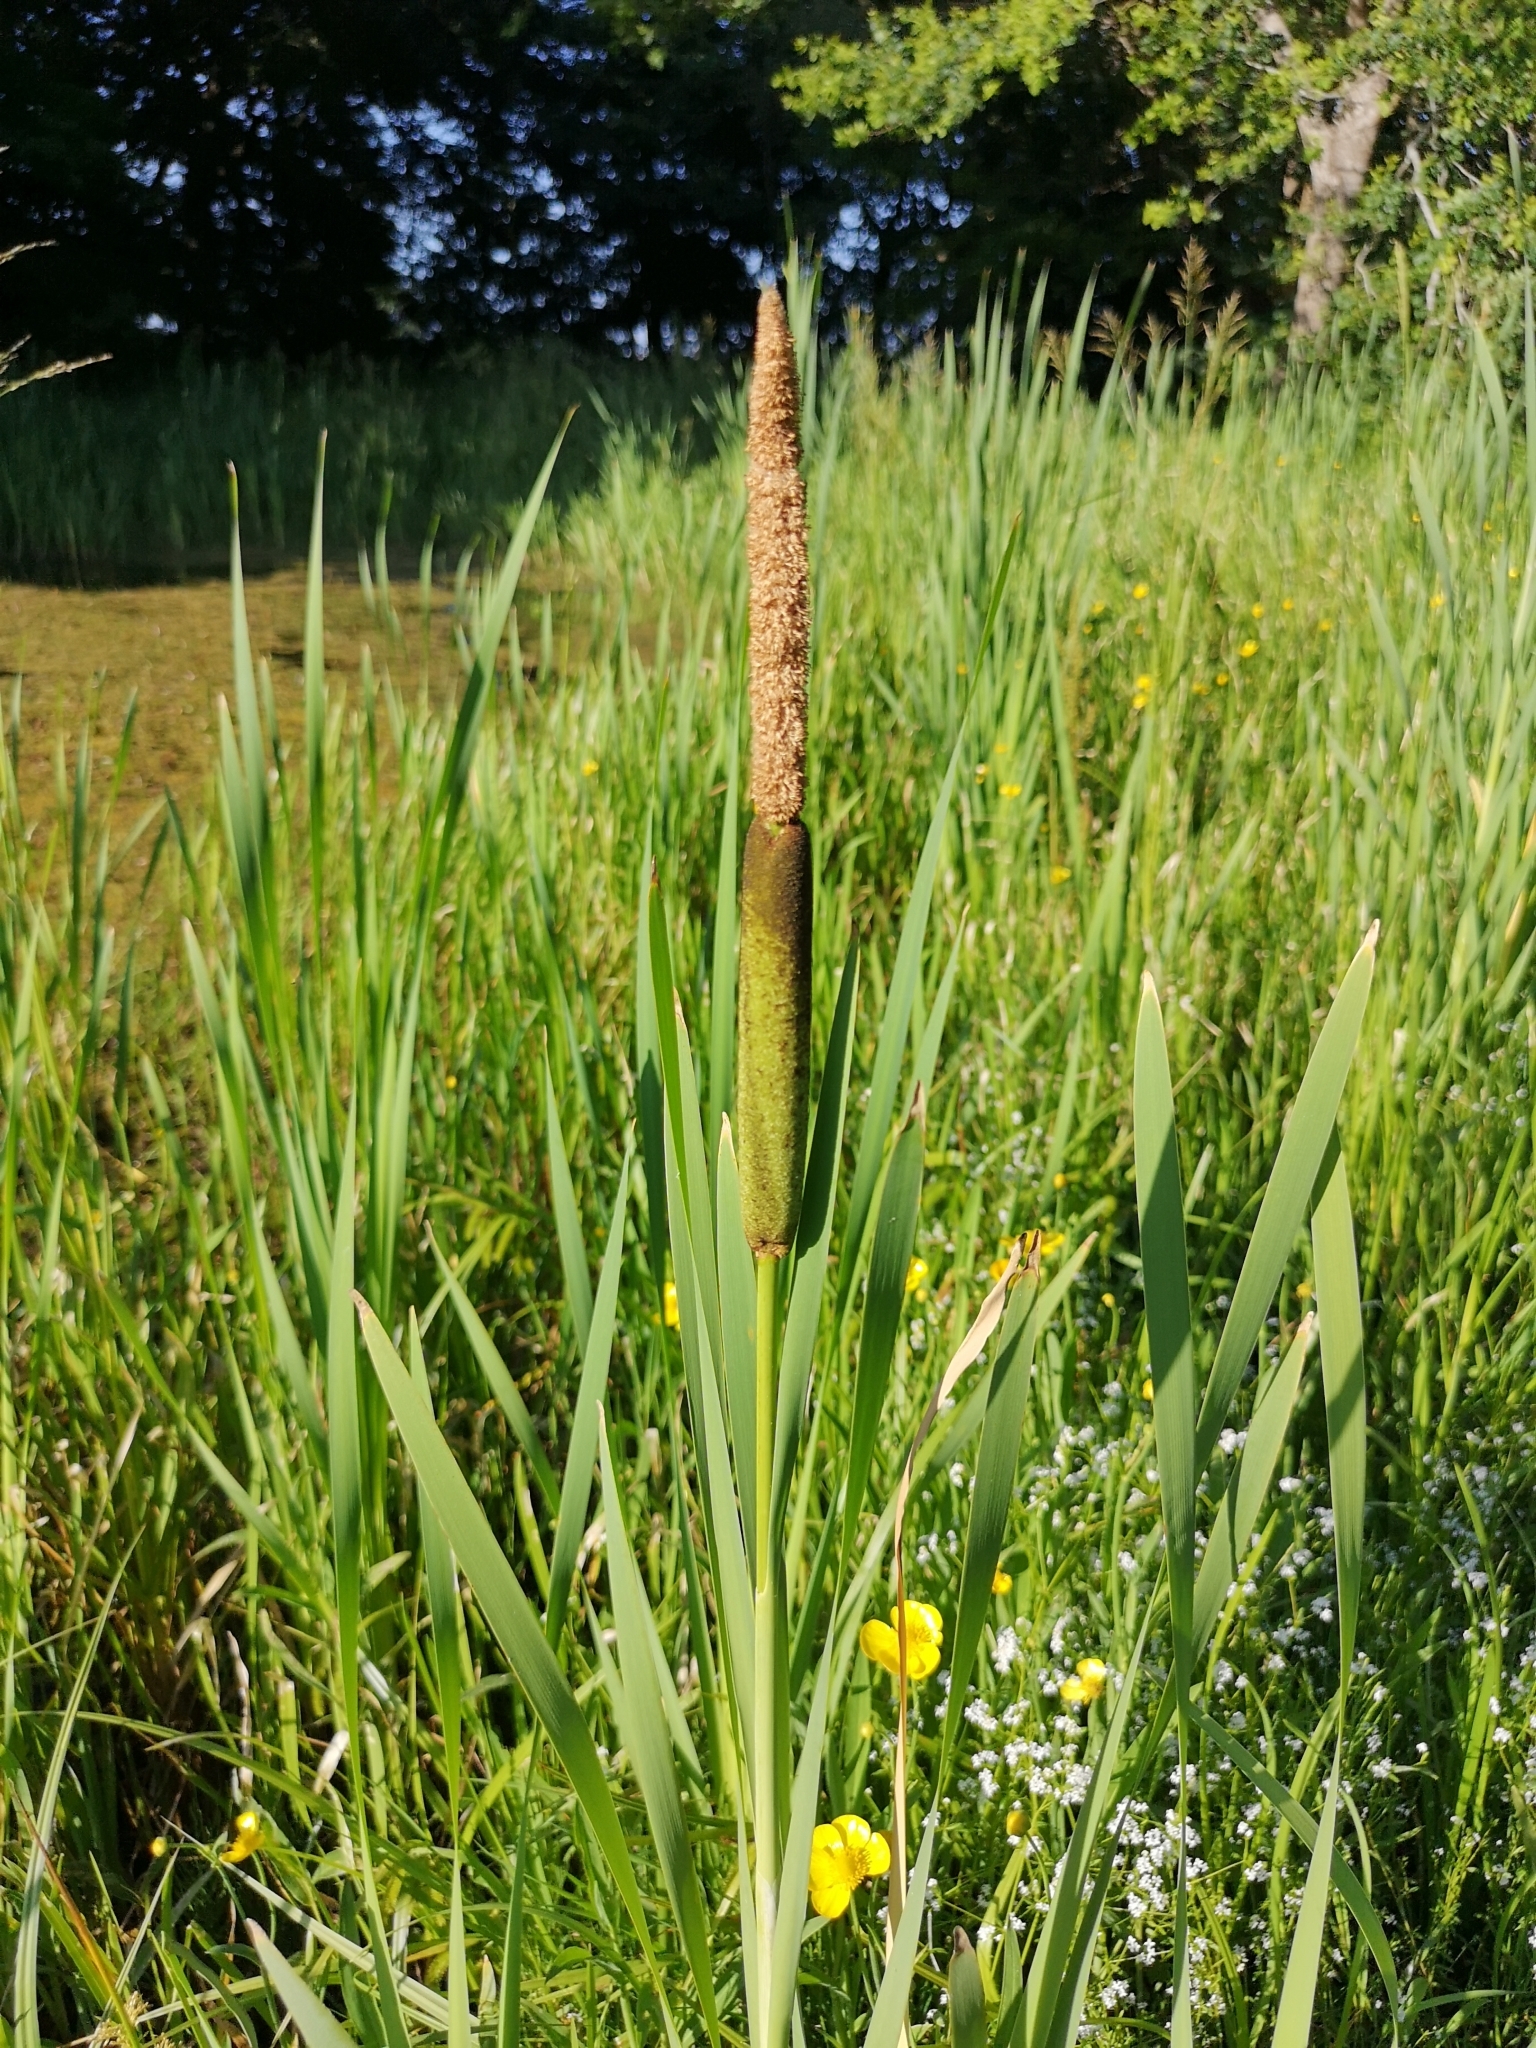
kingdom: Plantae
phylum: Tracheophyta
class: Liliopsida
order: Poales
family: Typhaceae
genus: Typha
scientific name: Typha latifolia
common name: Broadleaf cattail
